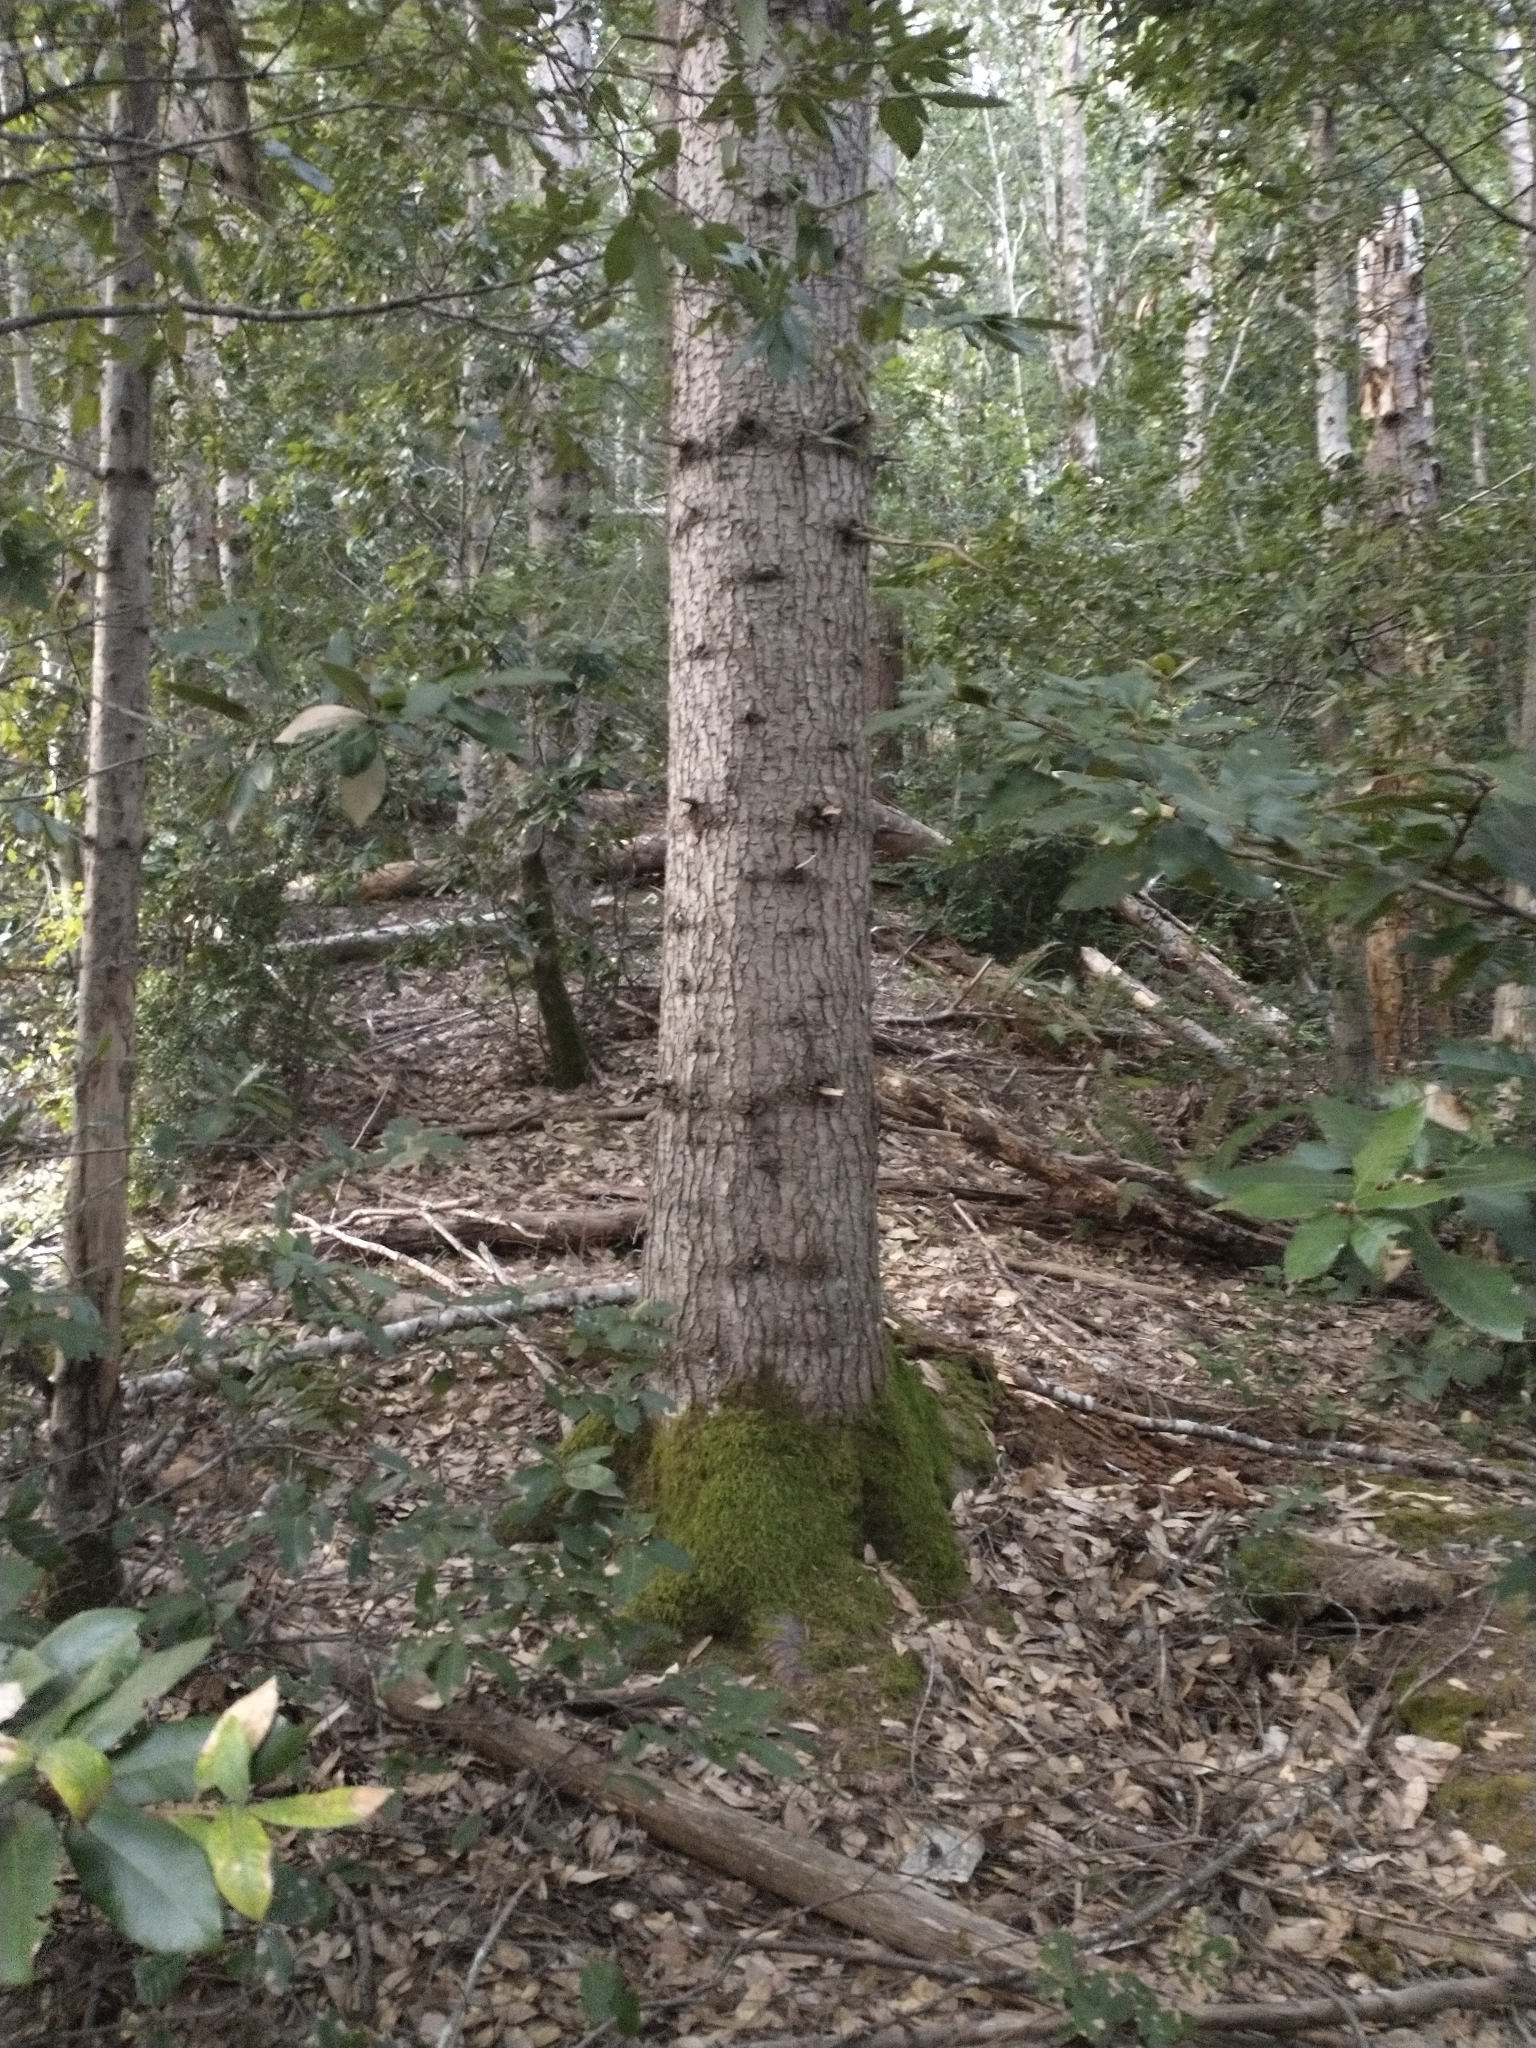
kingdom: Plantae
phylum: Tracheophyta
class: Pinopsida
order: Pinales
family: Pinaceae
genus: Abies
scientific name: Abies grandis
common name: Giant fir
